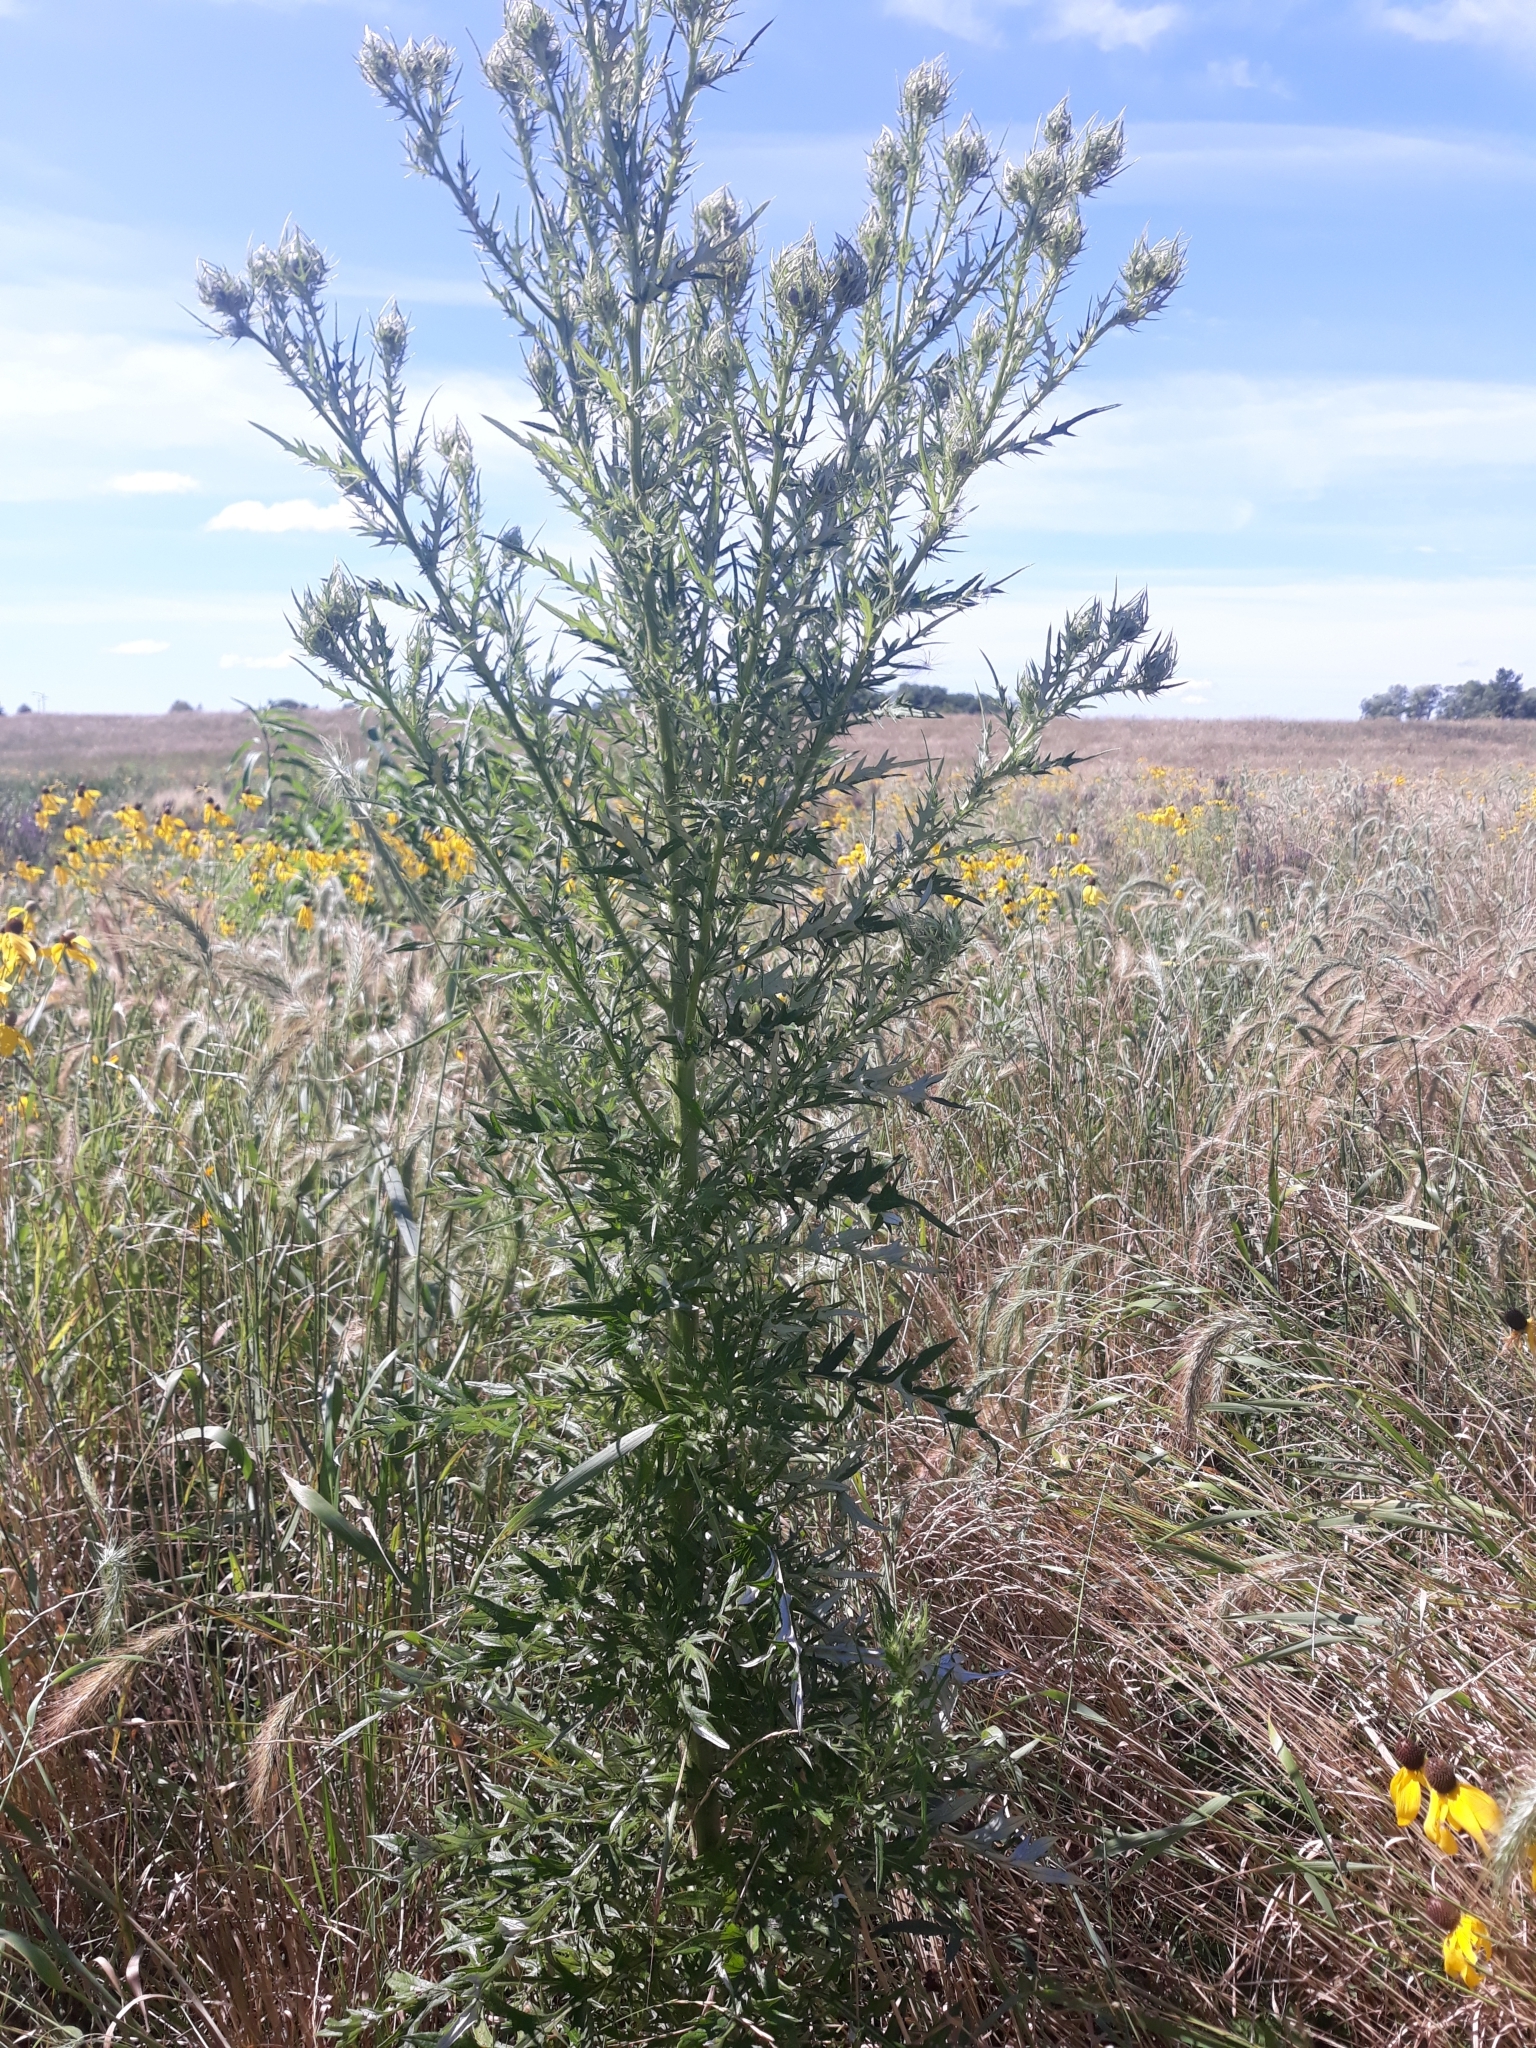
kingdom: Plantae
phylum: Tracheophyta
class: Magnoliopsida
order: Asterales
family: Asteraceae
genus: Cirsium
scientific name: Cirsium discolor
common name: Field thistle
